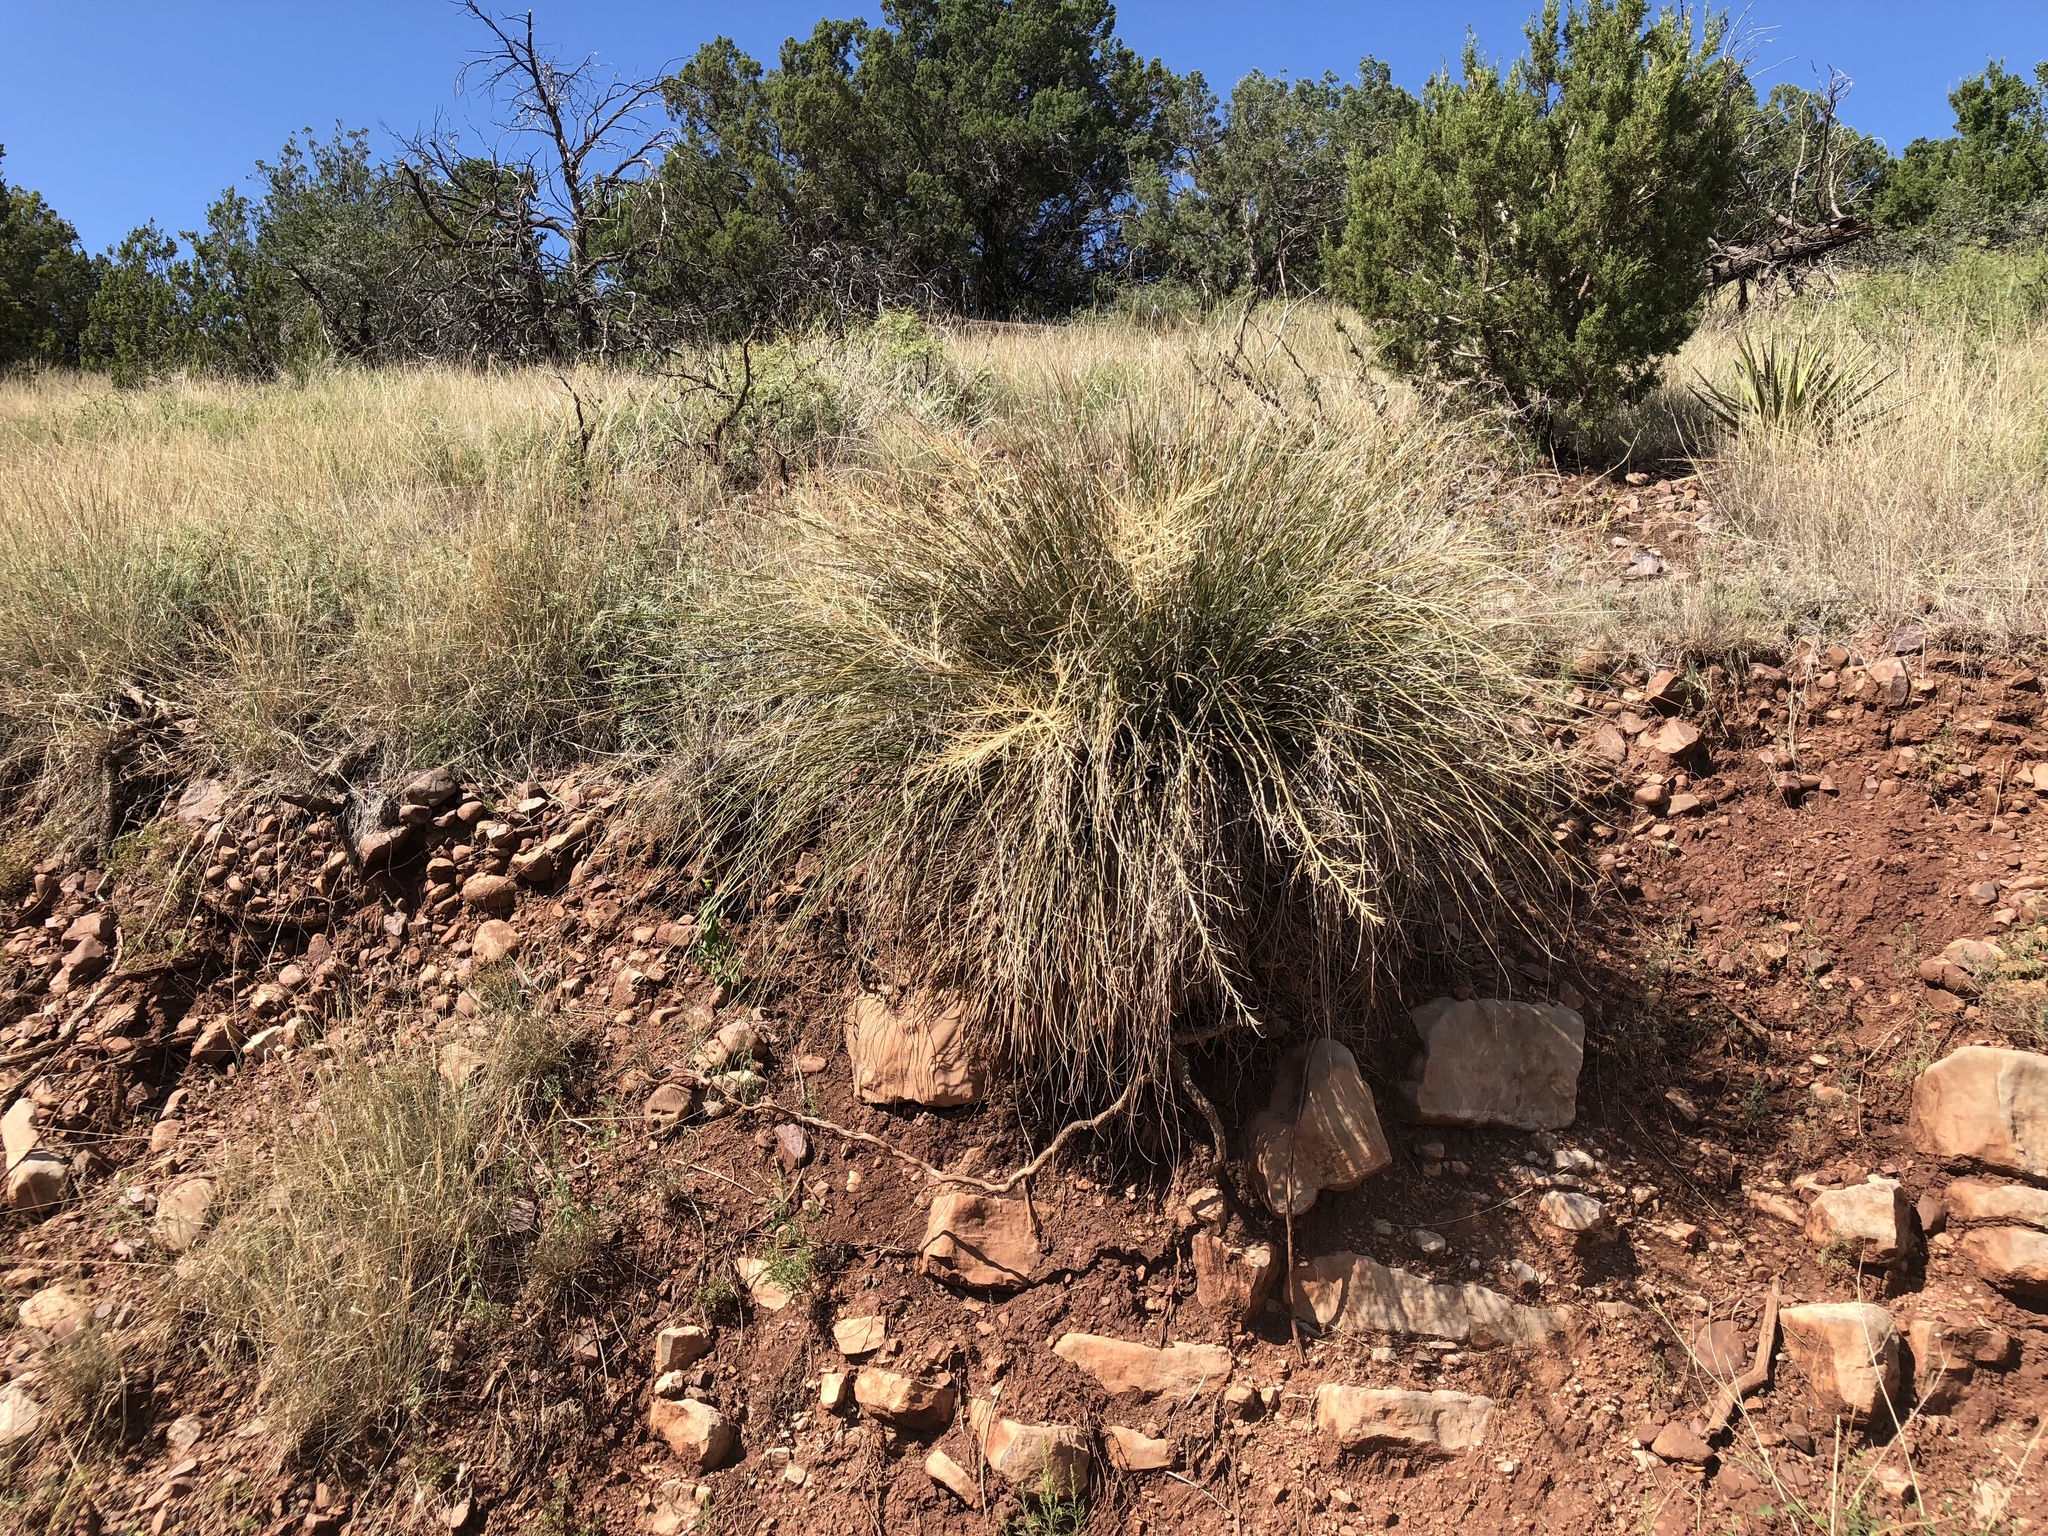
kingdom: Plantae
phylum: Tracheophyta
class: Liliopsida
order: Asparagales
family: Asparagaceae
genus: Nolina
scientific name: Nolina microcarpa
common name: Bear-grass
